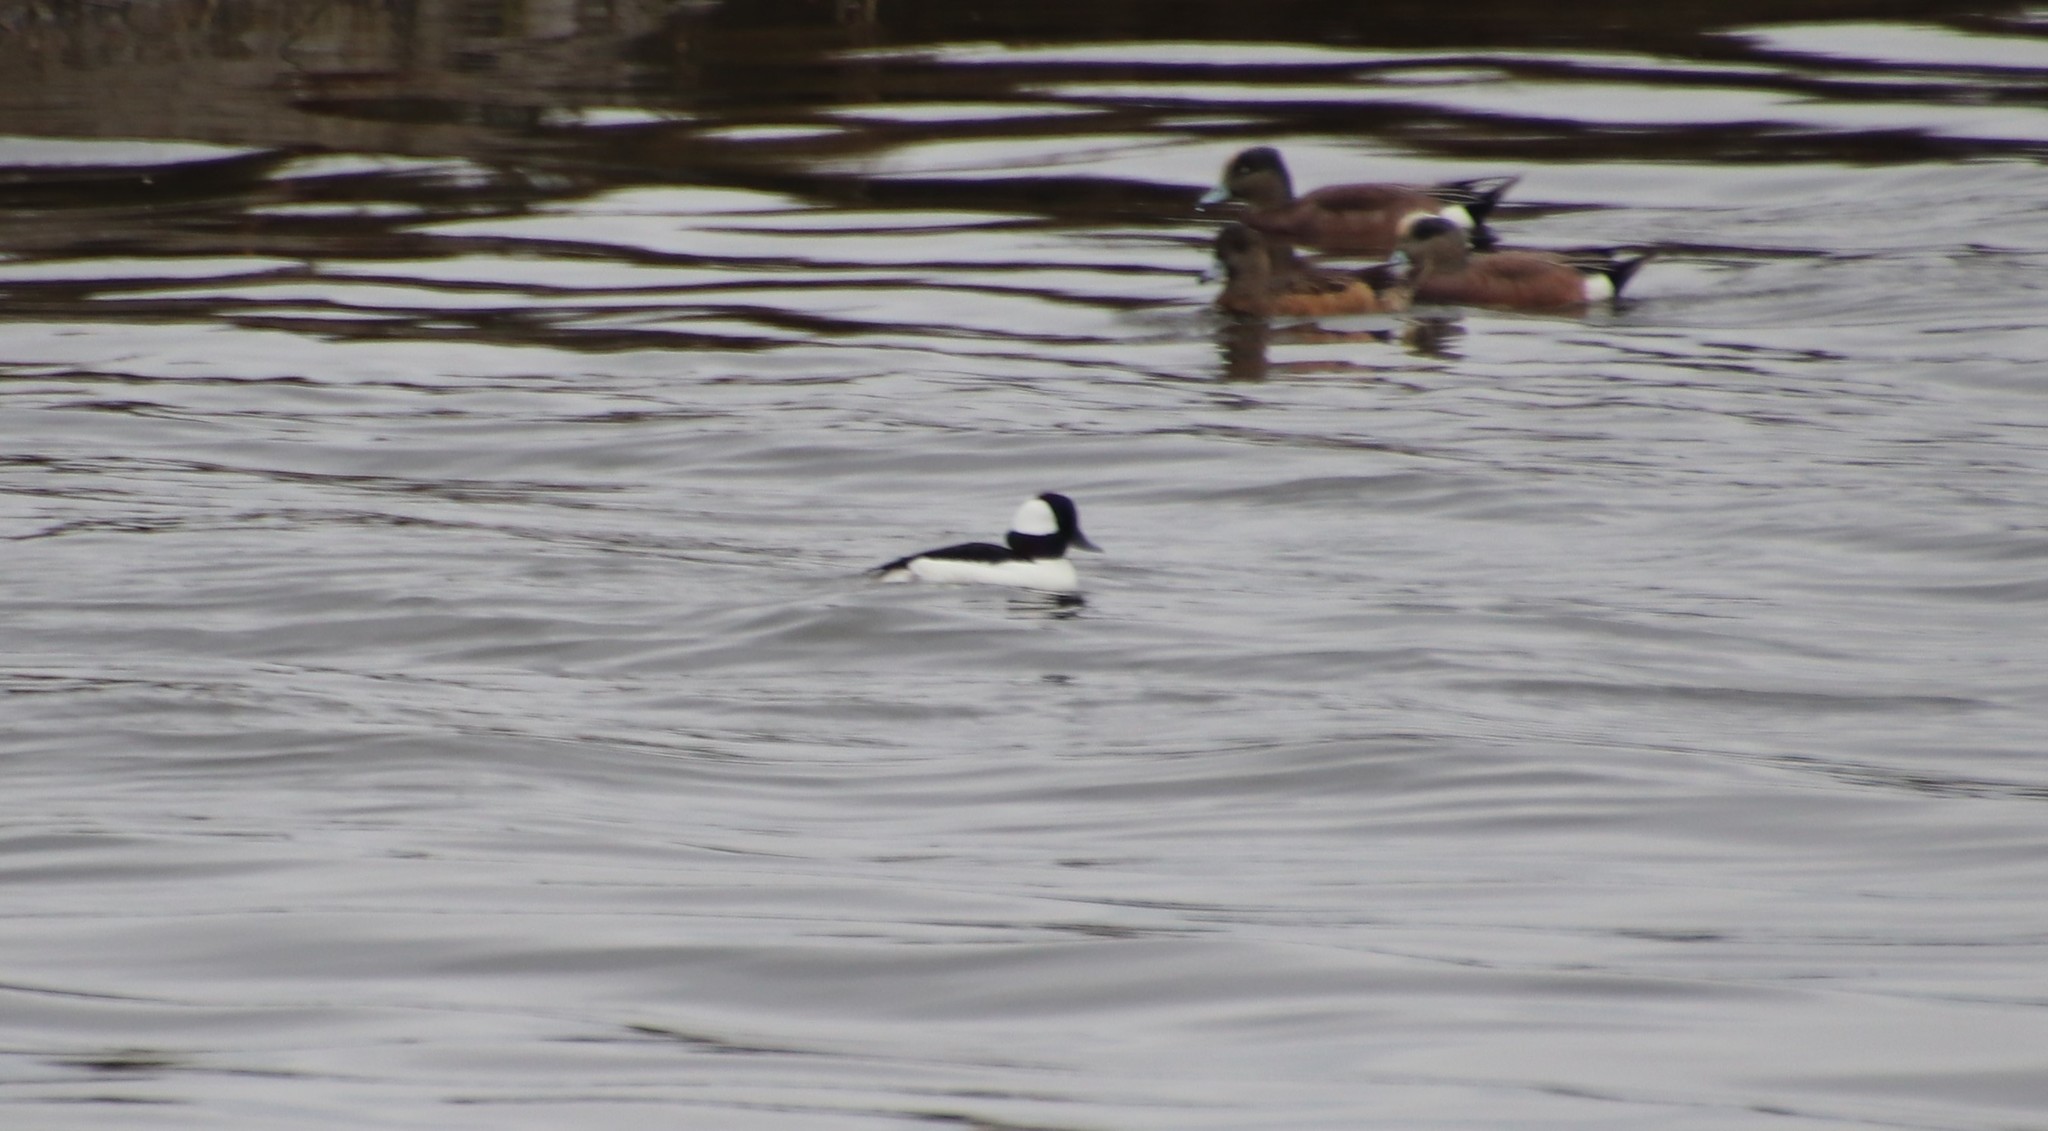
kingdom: Animalia
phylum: Chordata
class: Aves
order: Anseriformes
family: Anatidae
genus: Bucephala
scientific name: Bucephala albeola
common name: Bufflehead
